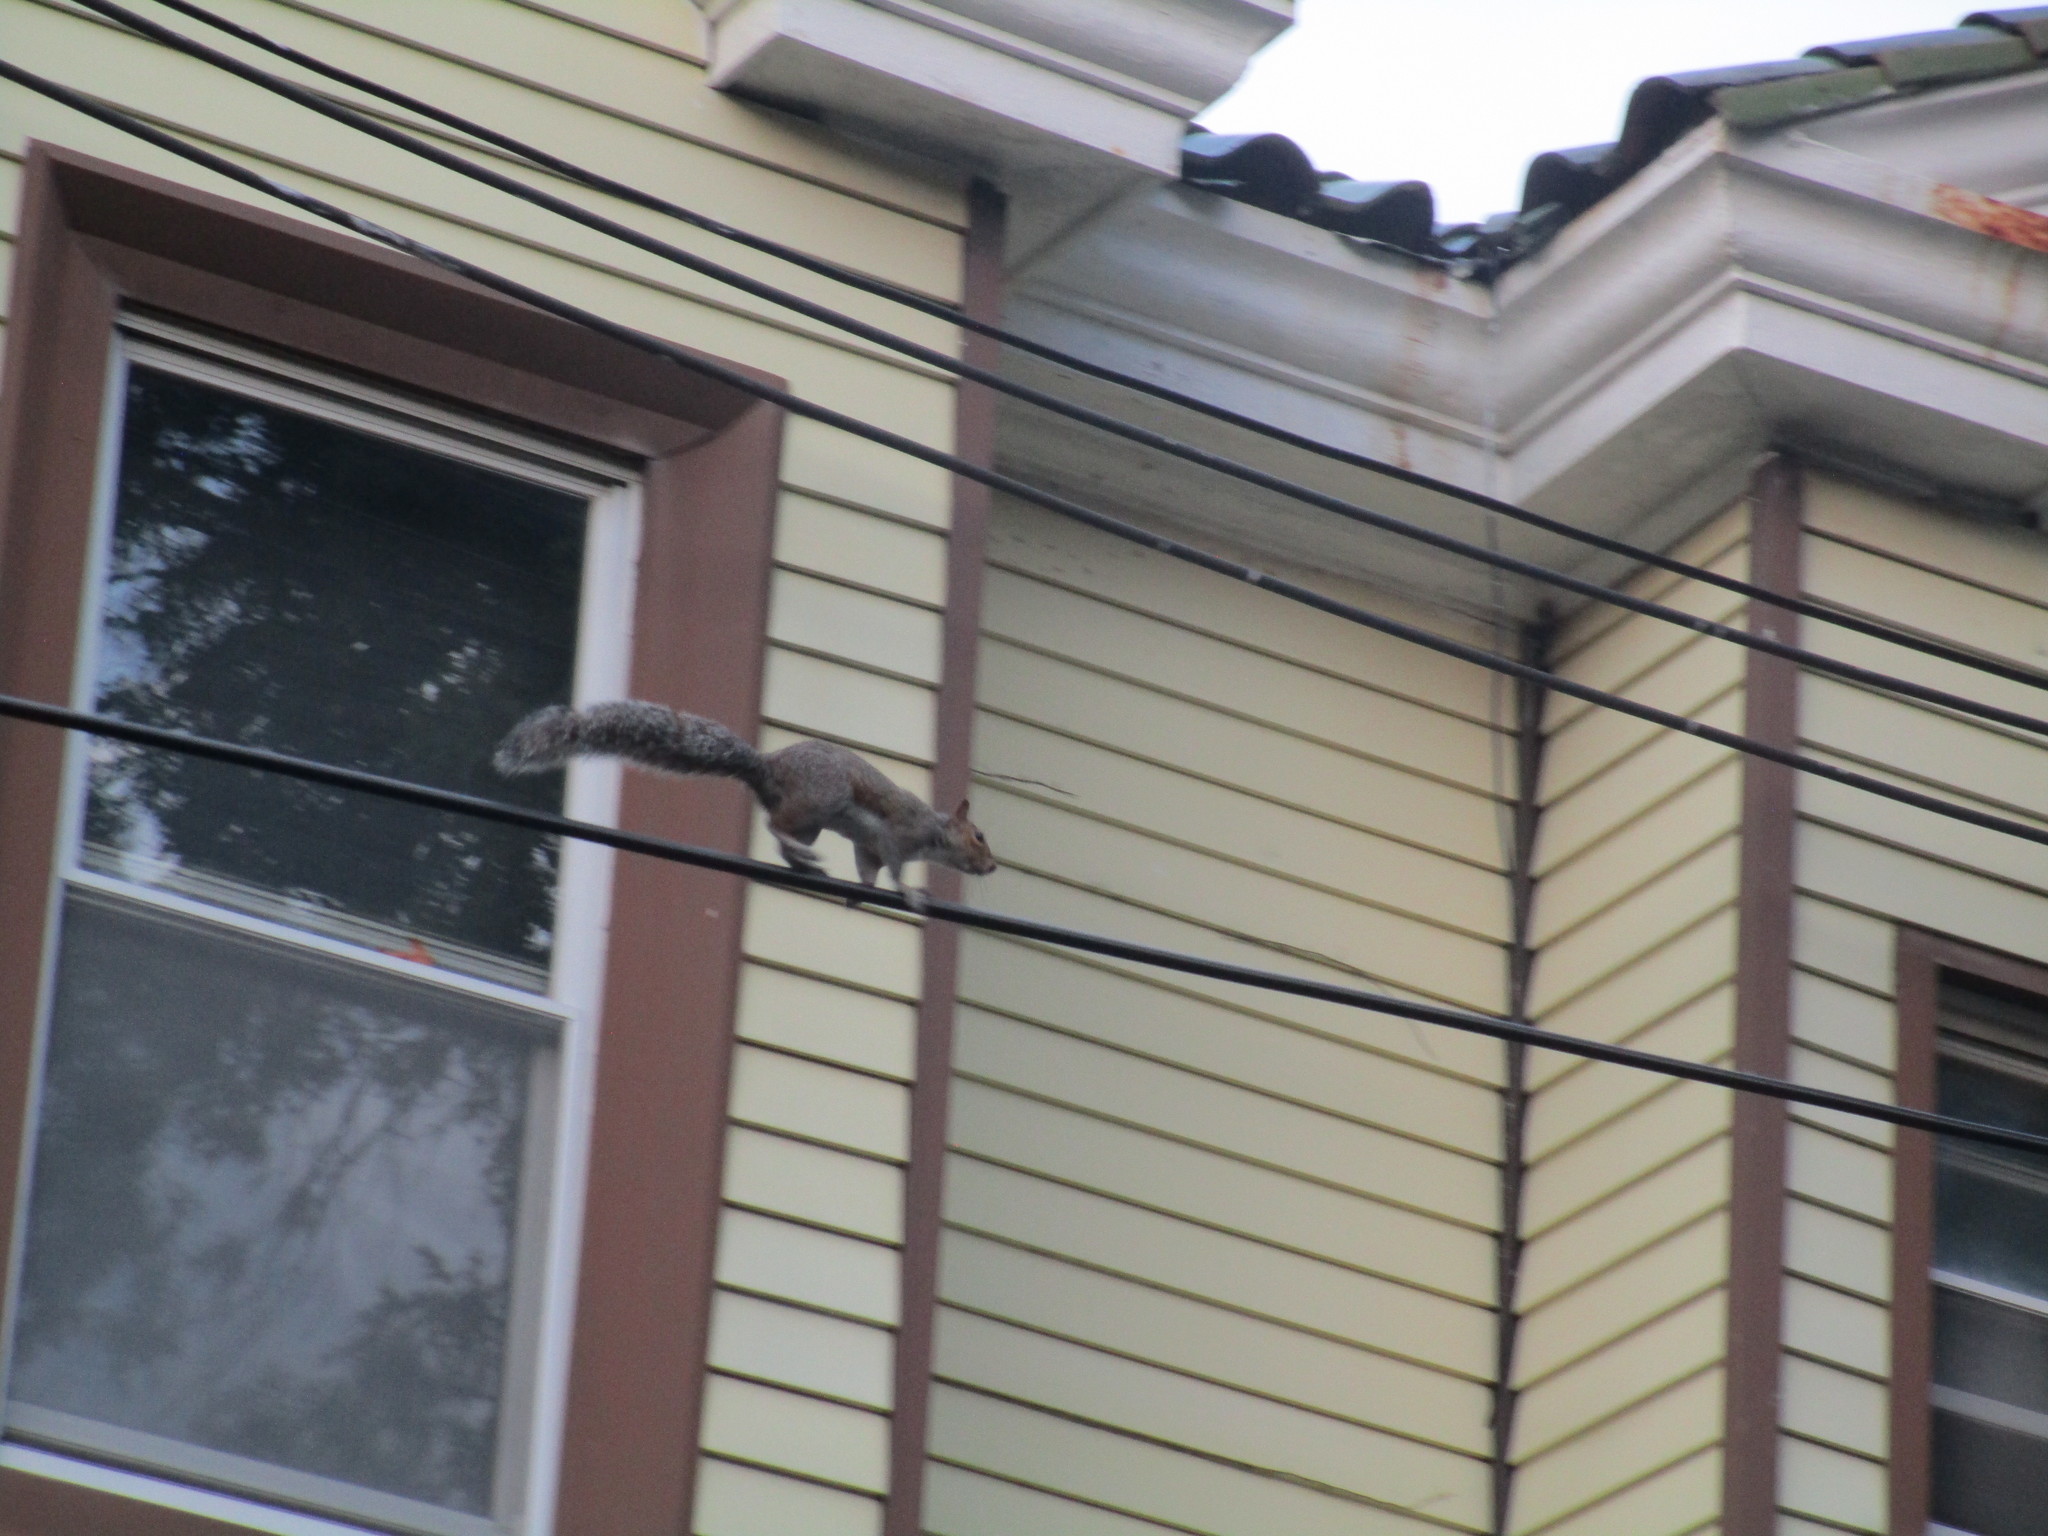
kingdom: Animalia
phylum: Chordata
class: Mammalia
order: Rodentia
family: Sciuridae
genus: Sciurus
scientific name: Sciurus carolinensis
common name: Eastern gray squirrel
